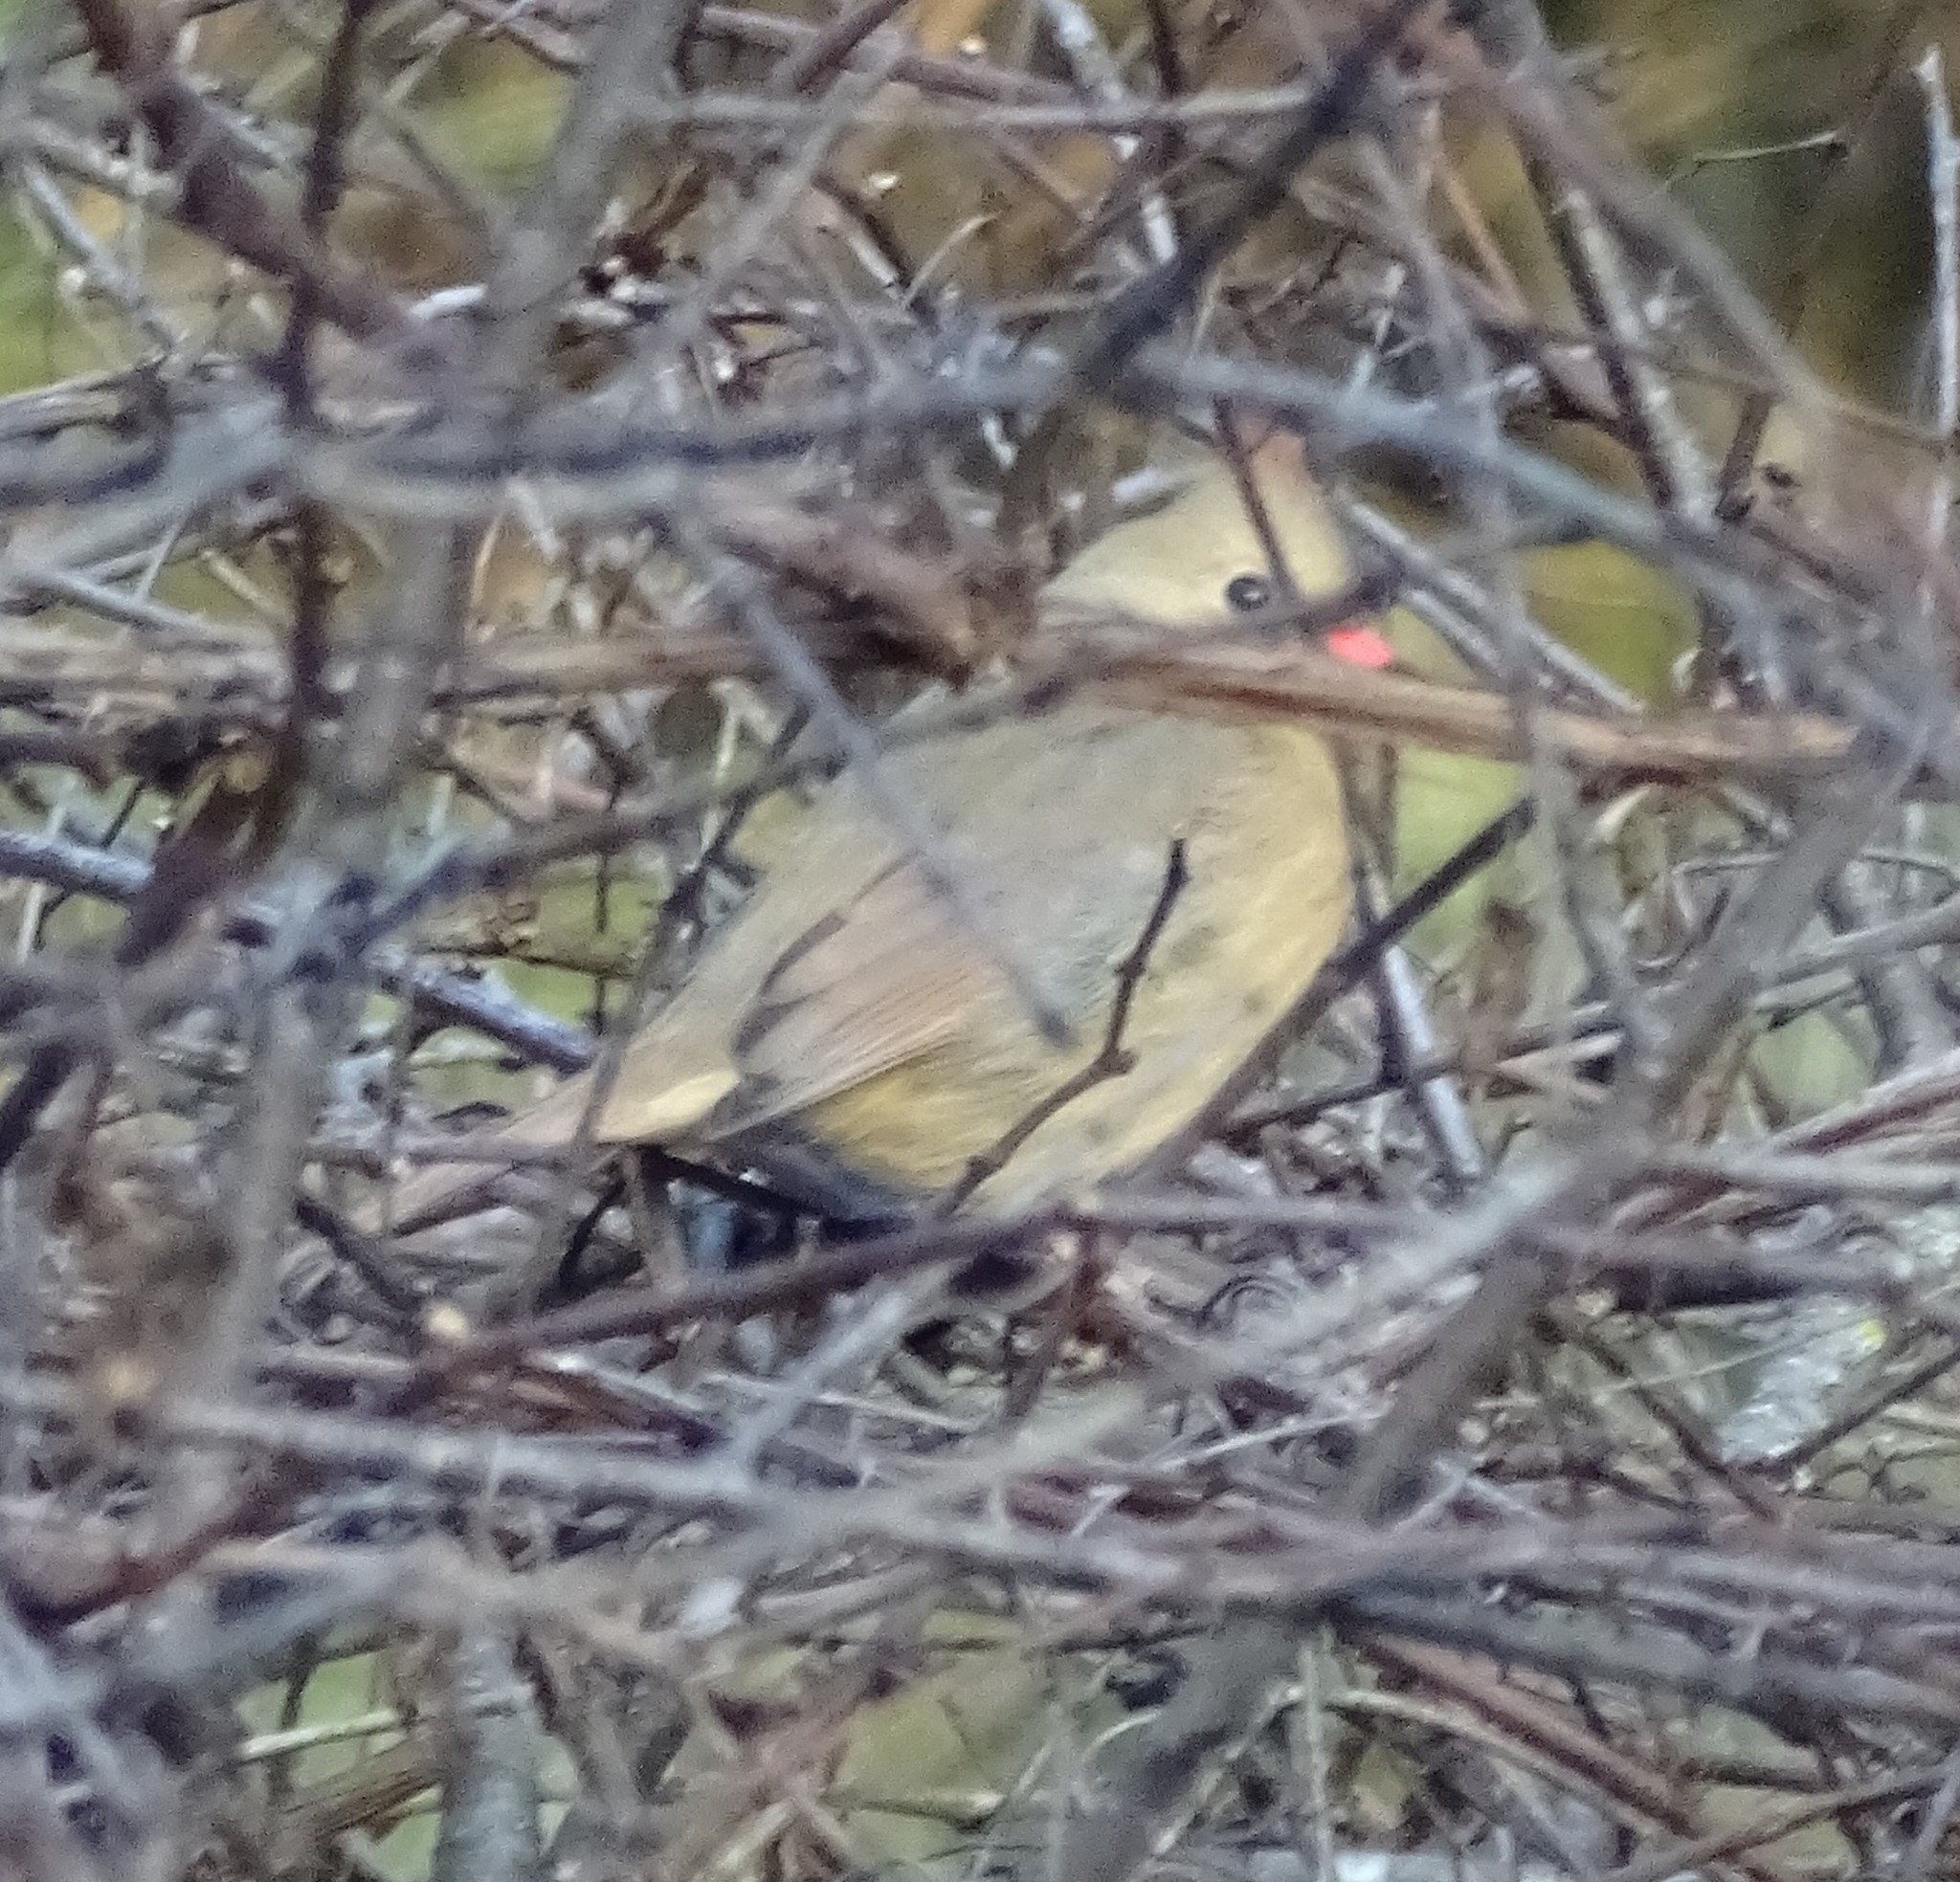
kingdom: Animalia
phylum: Chordata
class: Aves
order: Passeriformes
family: Cardinalidae
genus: Cardinalis
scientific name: Cardinalis cardinalis
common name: Northern cardinal
